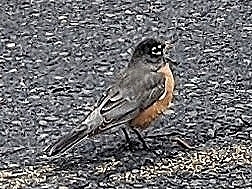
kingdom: Animalia
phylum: Chordata
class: Aves
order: Passeriformes
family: Turdidae
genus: Turdus
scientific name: Turdus migratorius
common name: American robin
